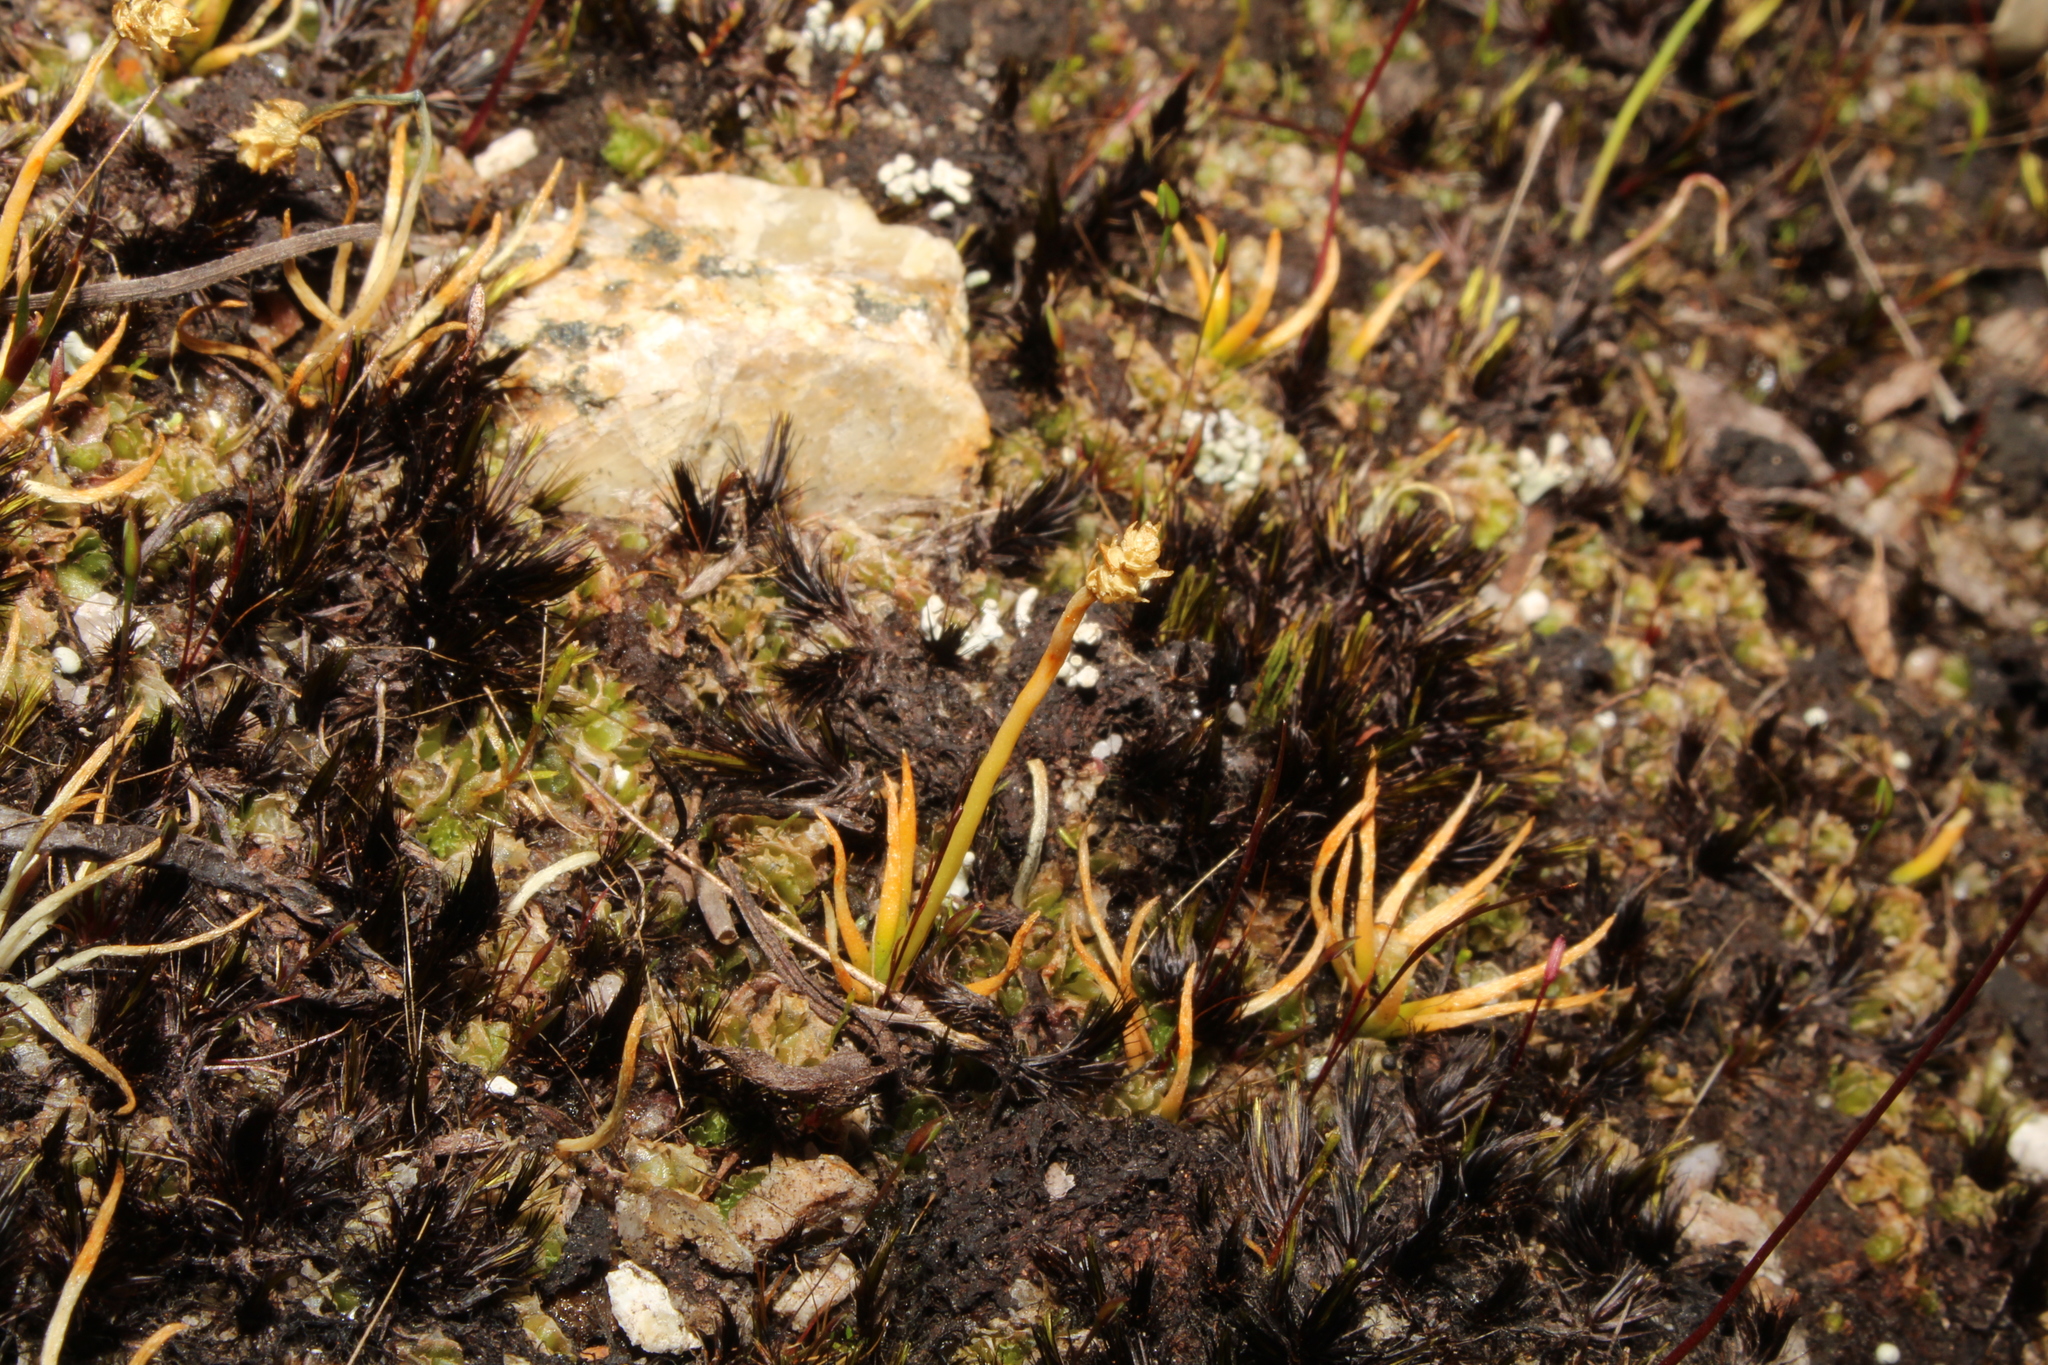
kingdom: Plantae
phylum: Tracheophyta
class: Lycopodiopsida
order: Lycopodiales
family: Lycopodiaceae
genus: Phylloglossum
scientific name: Phylloglossum drummondii
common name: Pigmy-club-moss
